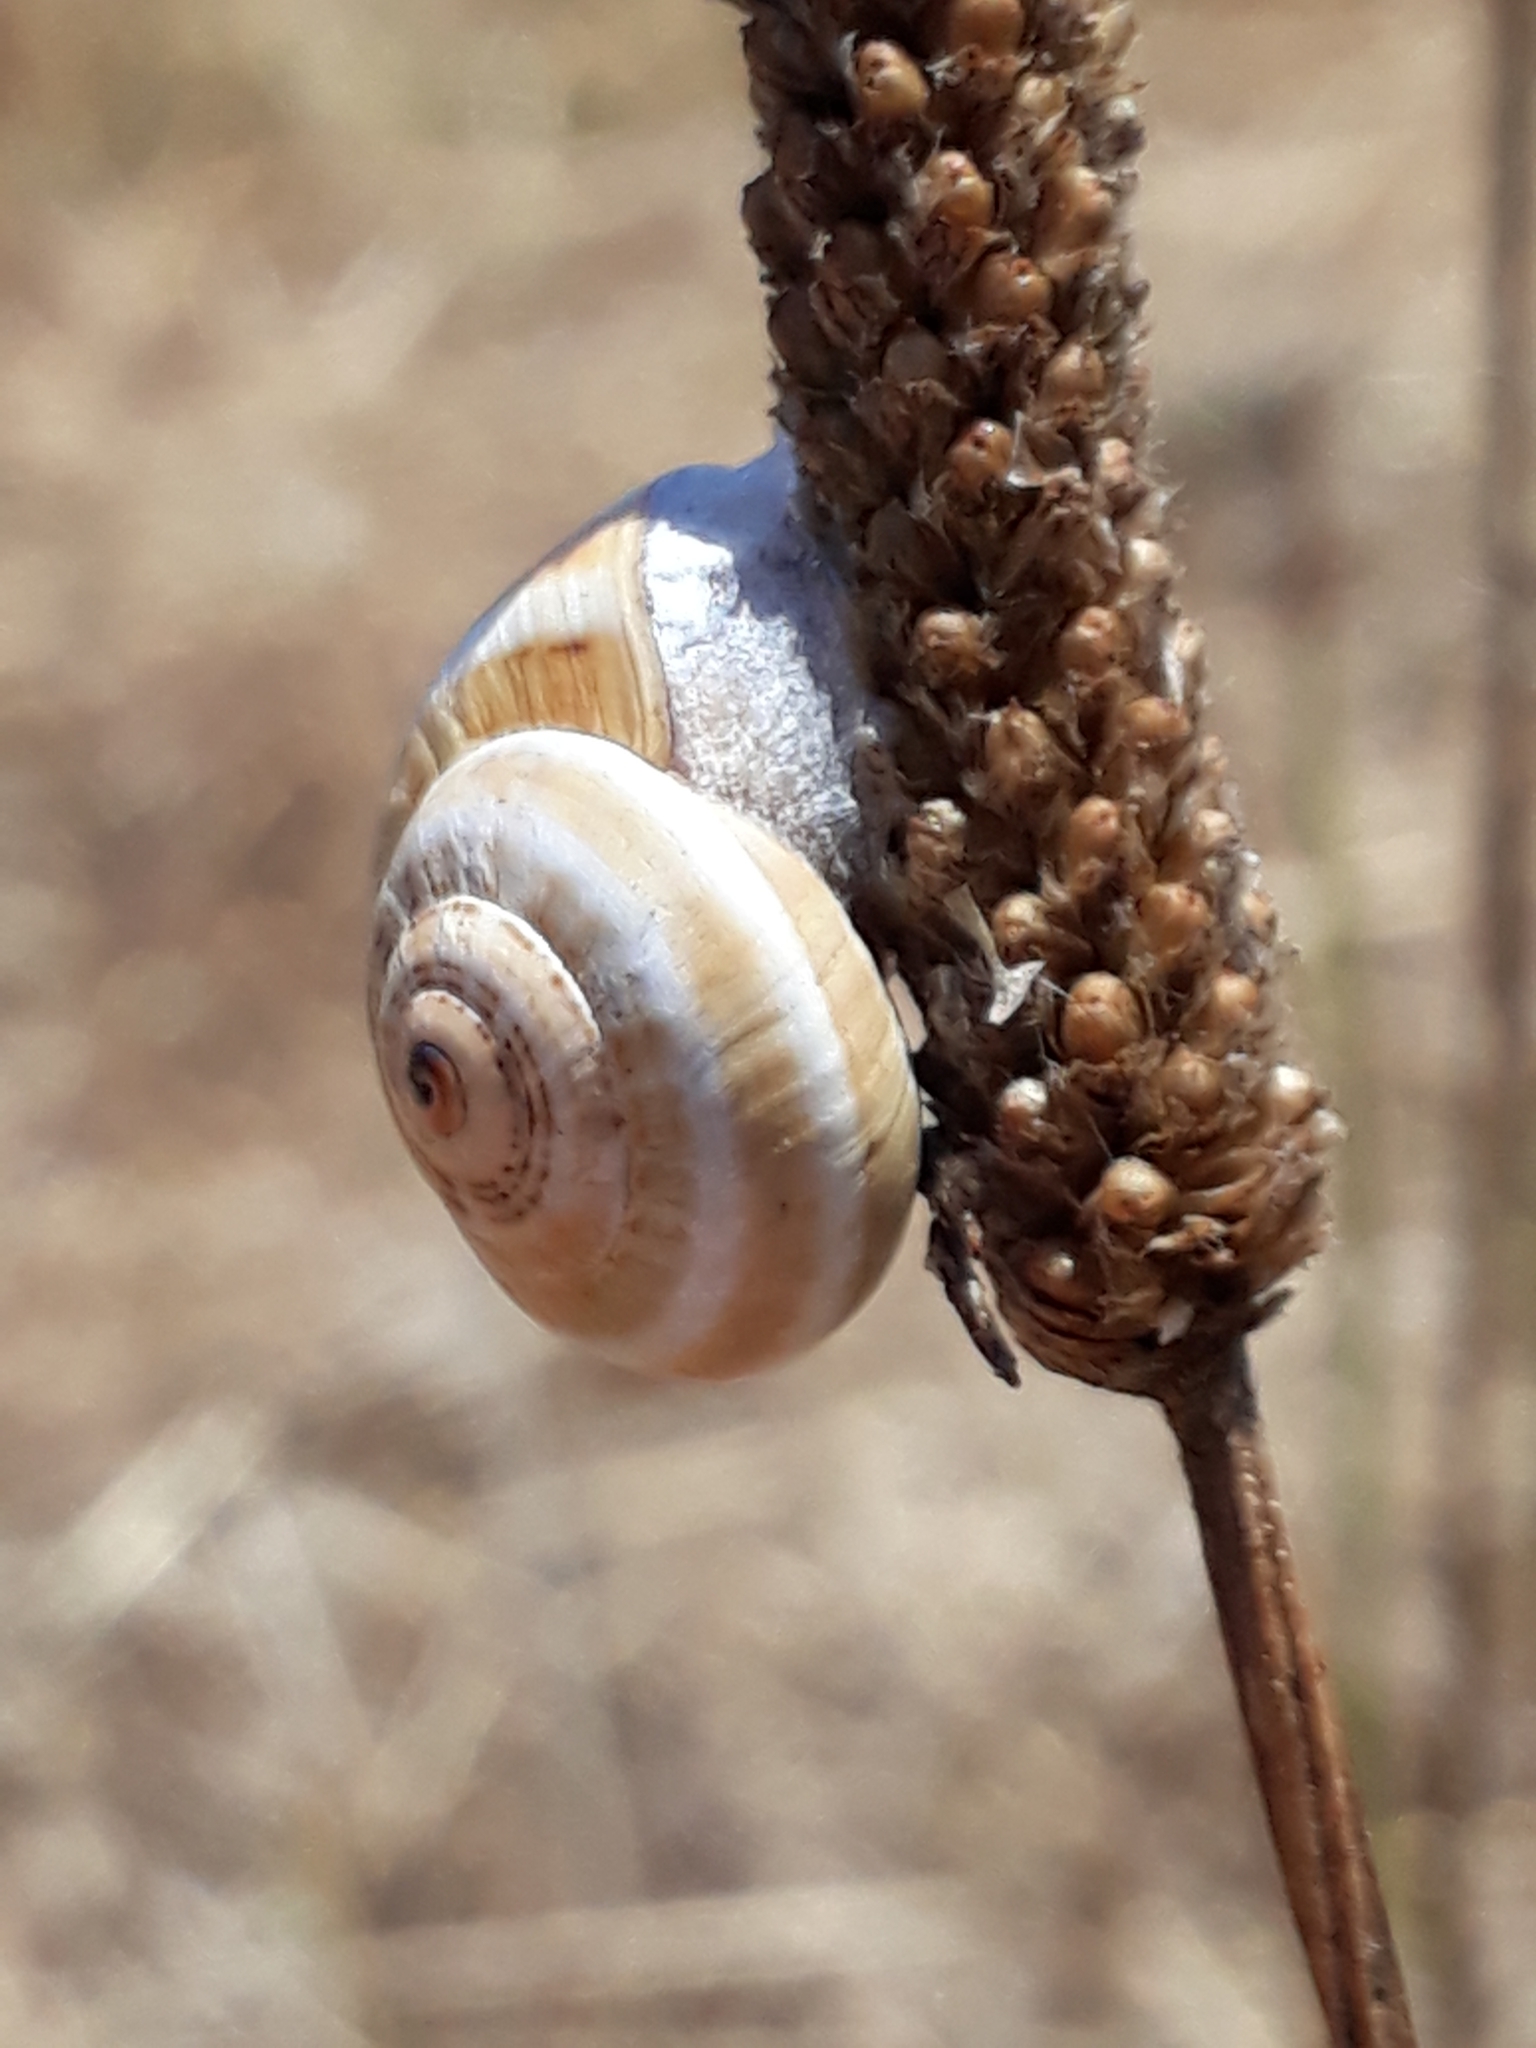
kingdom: Animalia
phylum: Mollusca
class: Gastropoda
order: Stylommatophora
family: Helicidae
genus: Theba
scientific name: Theba pisana
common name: White snail
